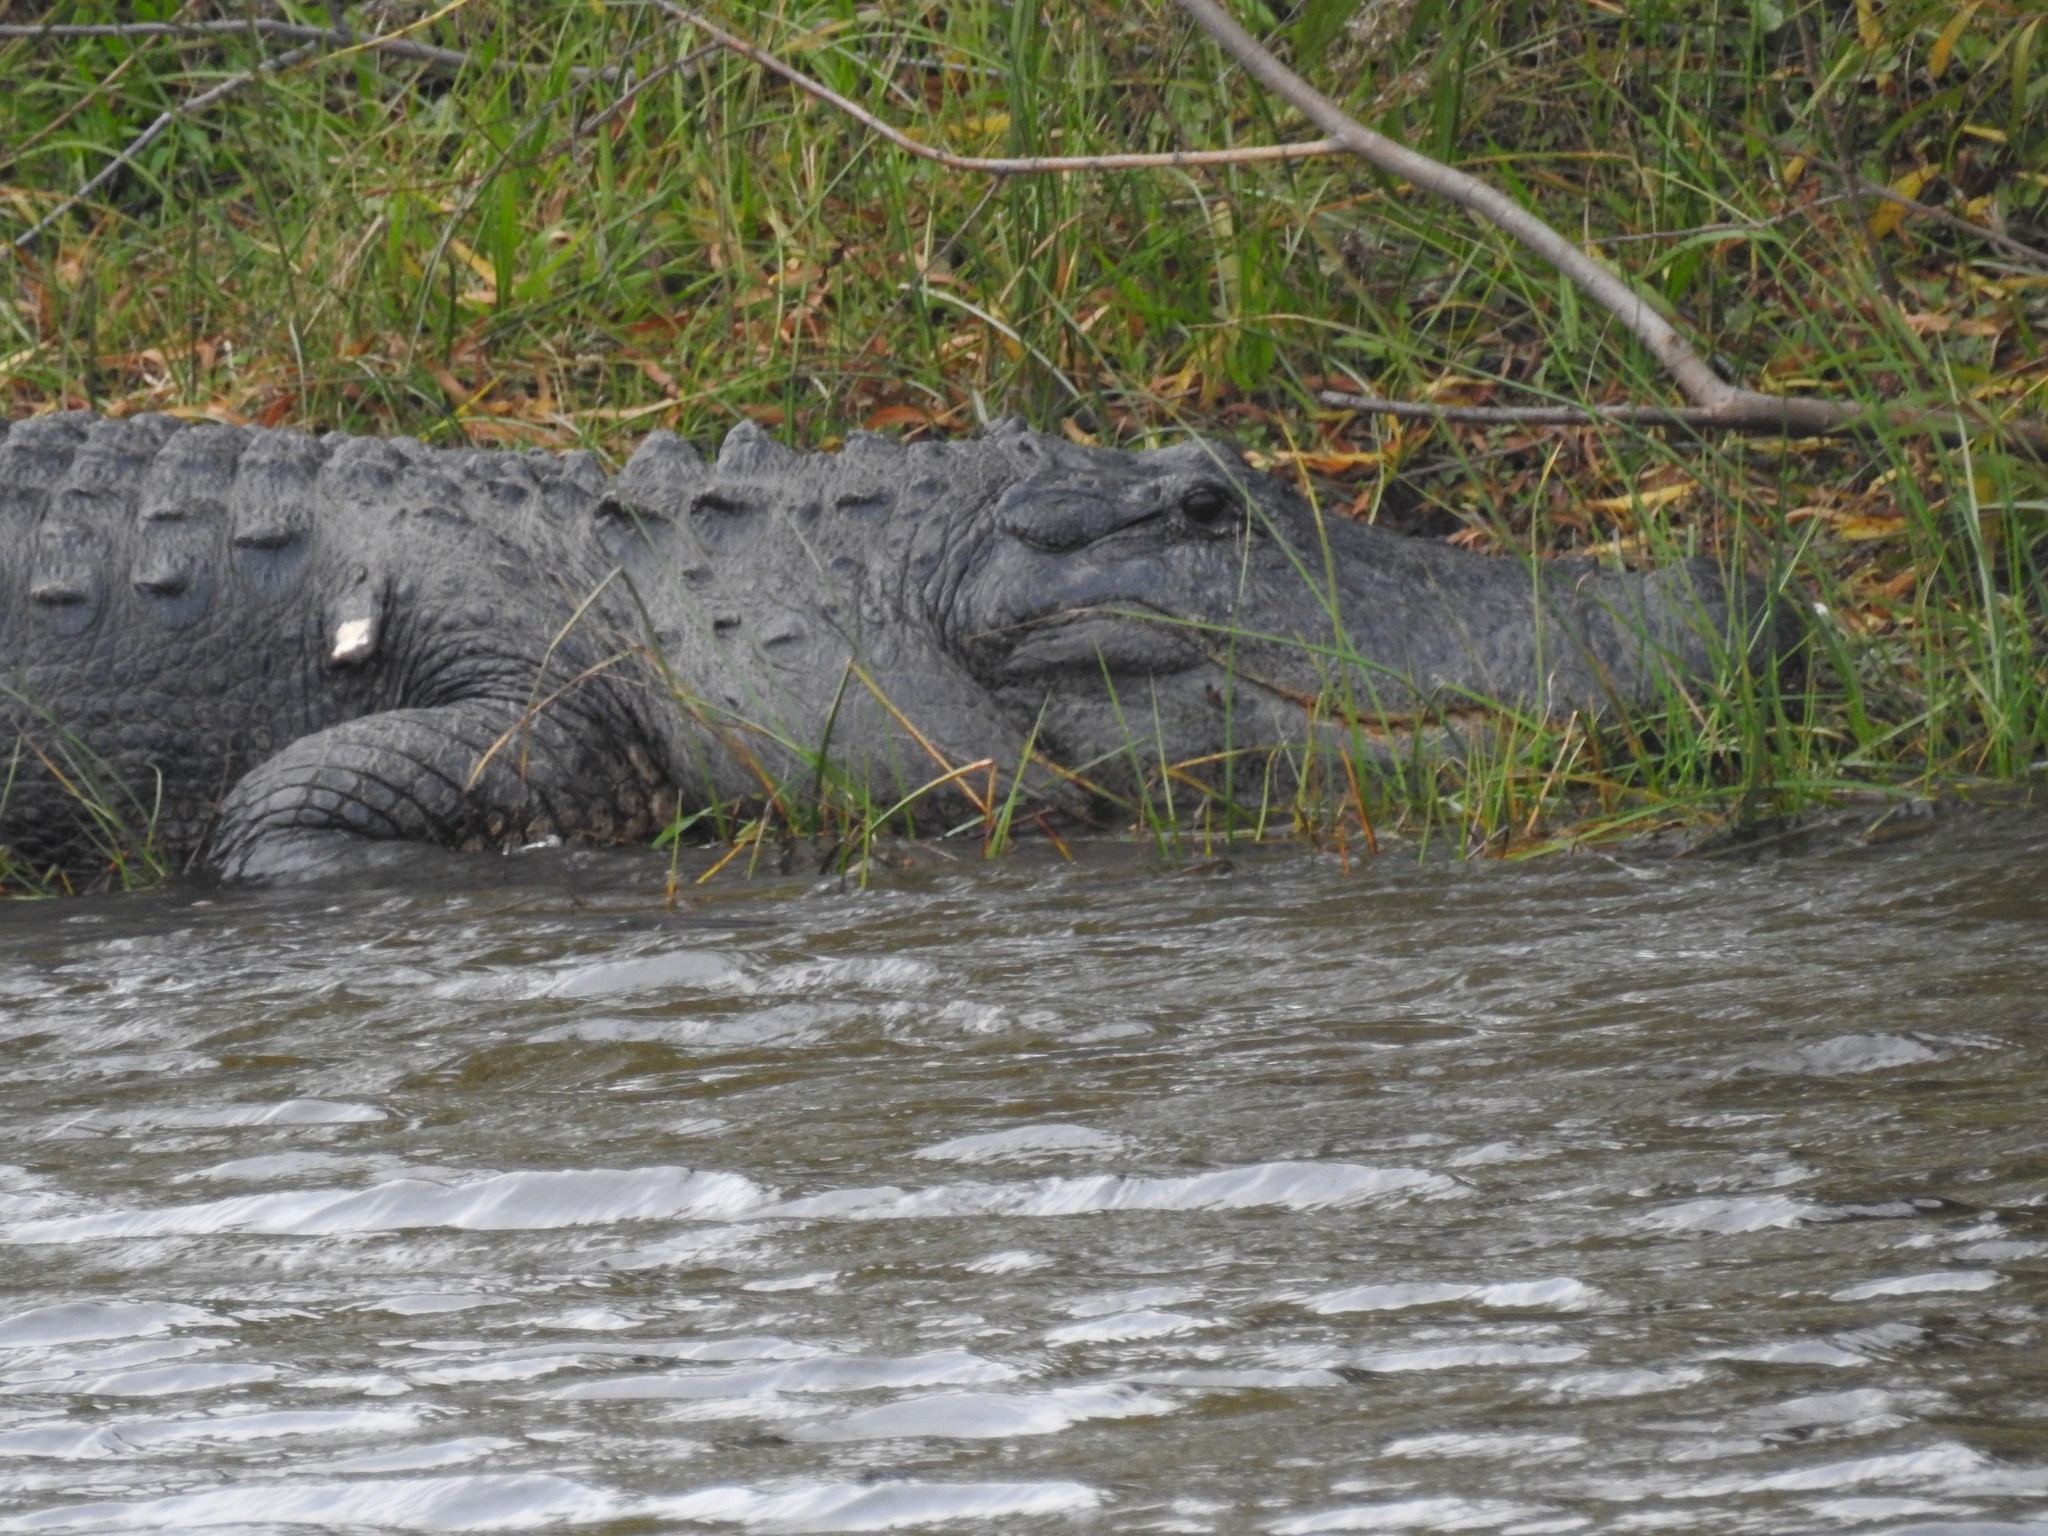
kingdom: Animalia
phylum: Chordata
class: Crocodylia
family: Alligatoridae
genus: Alligator
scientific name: Alligator mississippiensis
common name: American alligator
